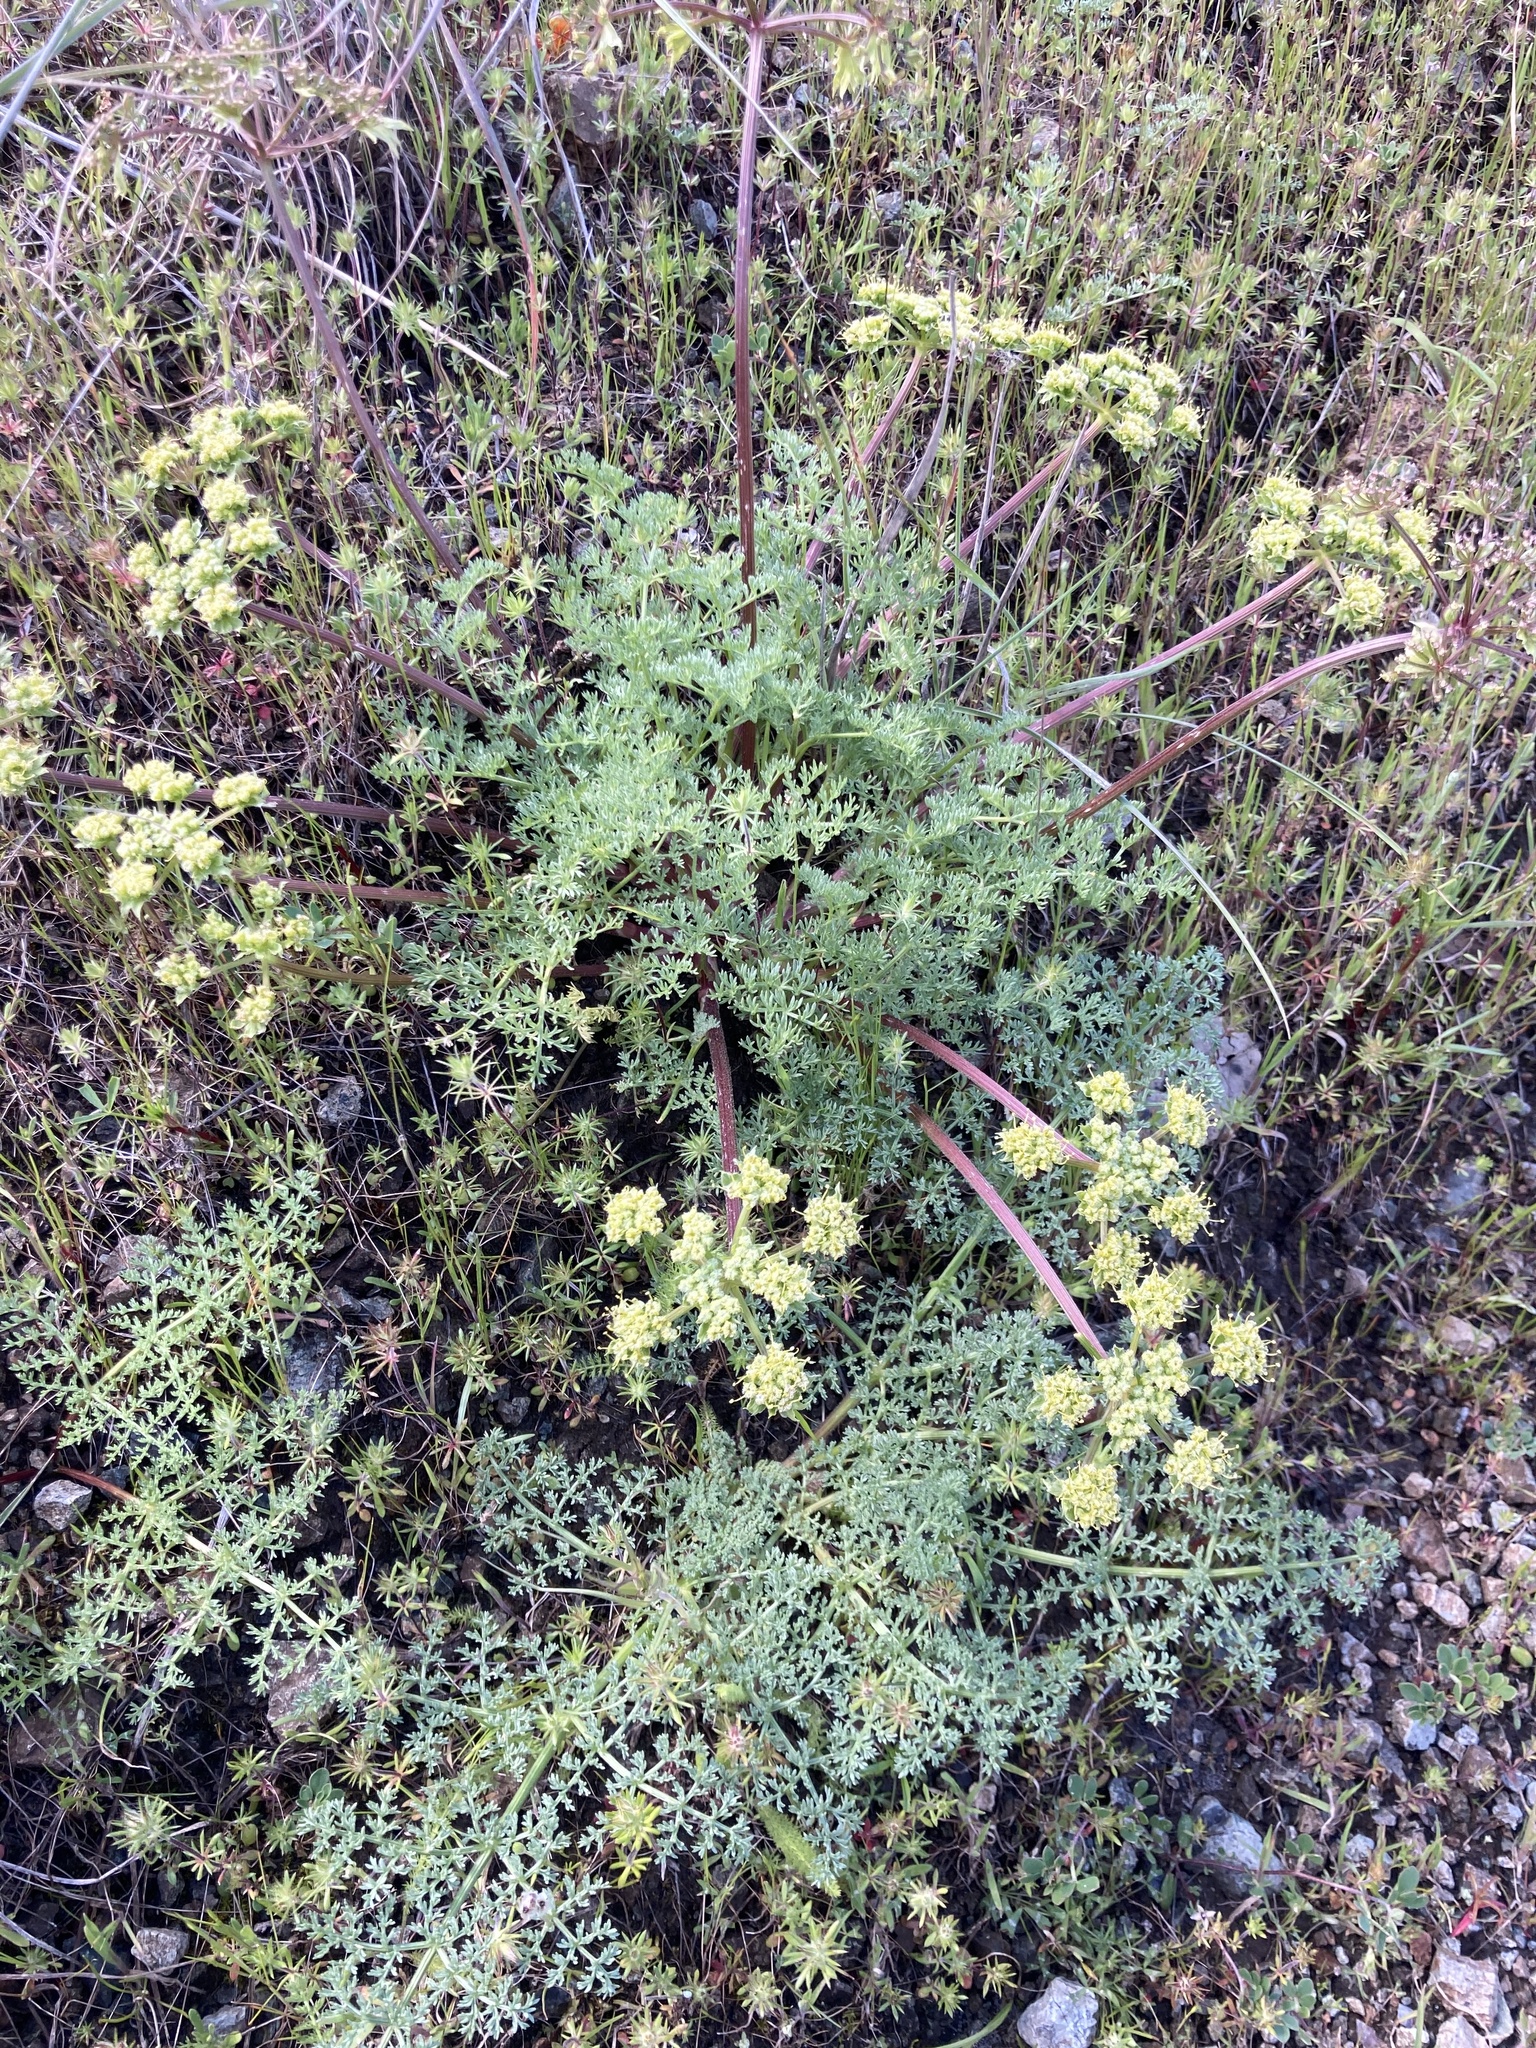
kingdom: Plantae
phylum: Tracheophyta
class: Magnoliopsida
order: Apiales
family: Apiaceae
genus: Lomatium
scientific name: Lomatium dasycarpum
